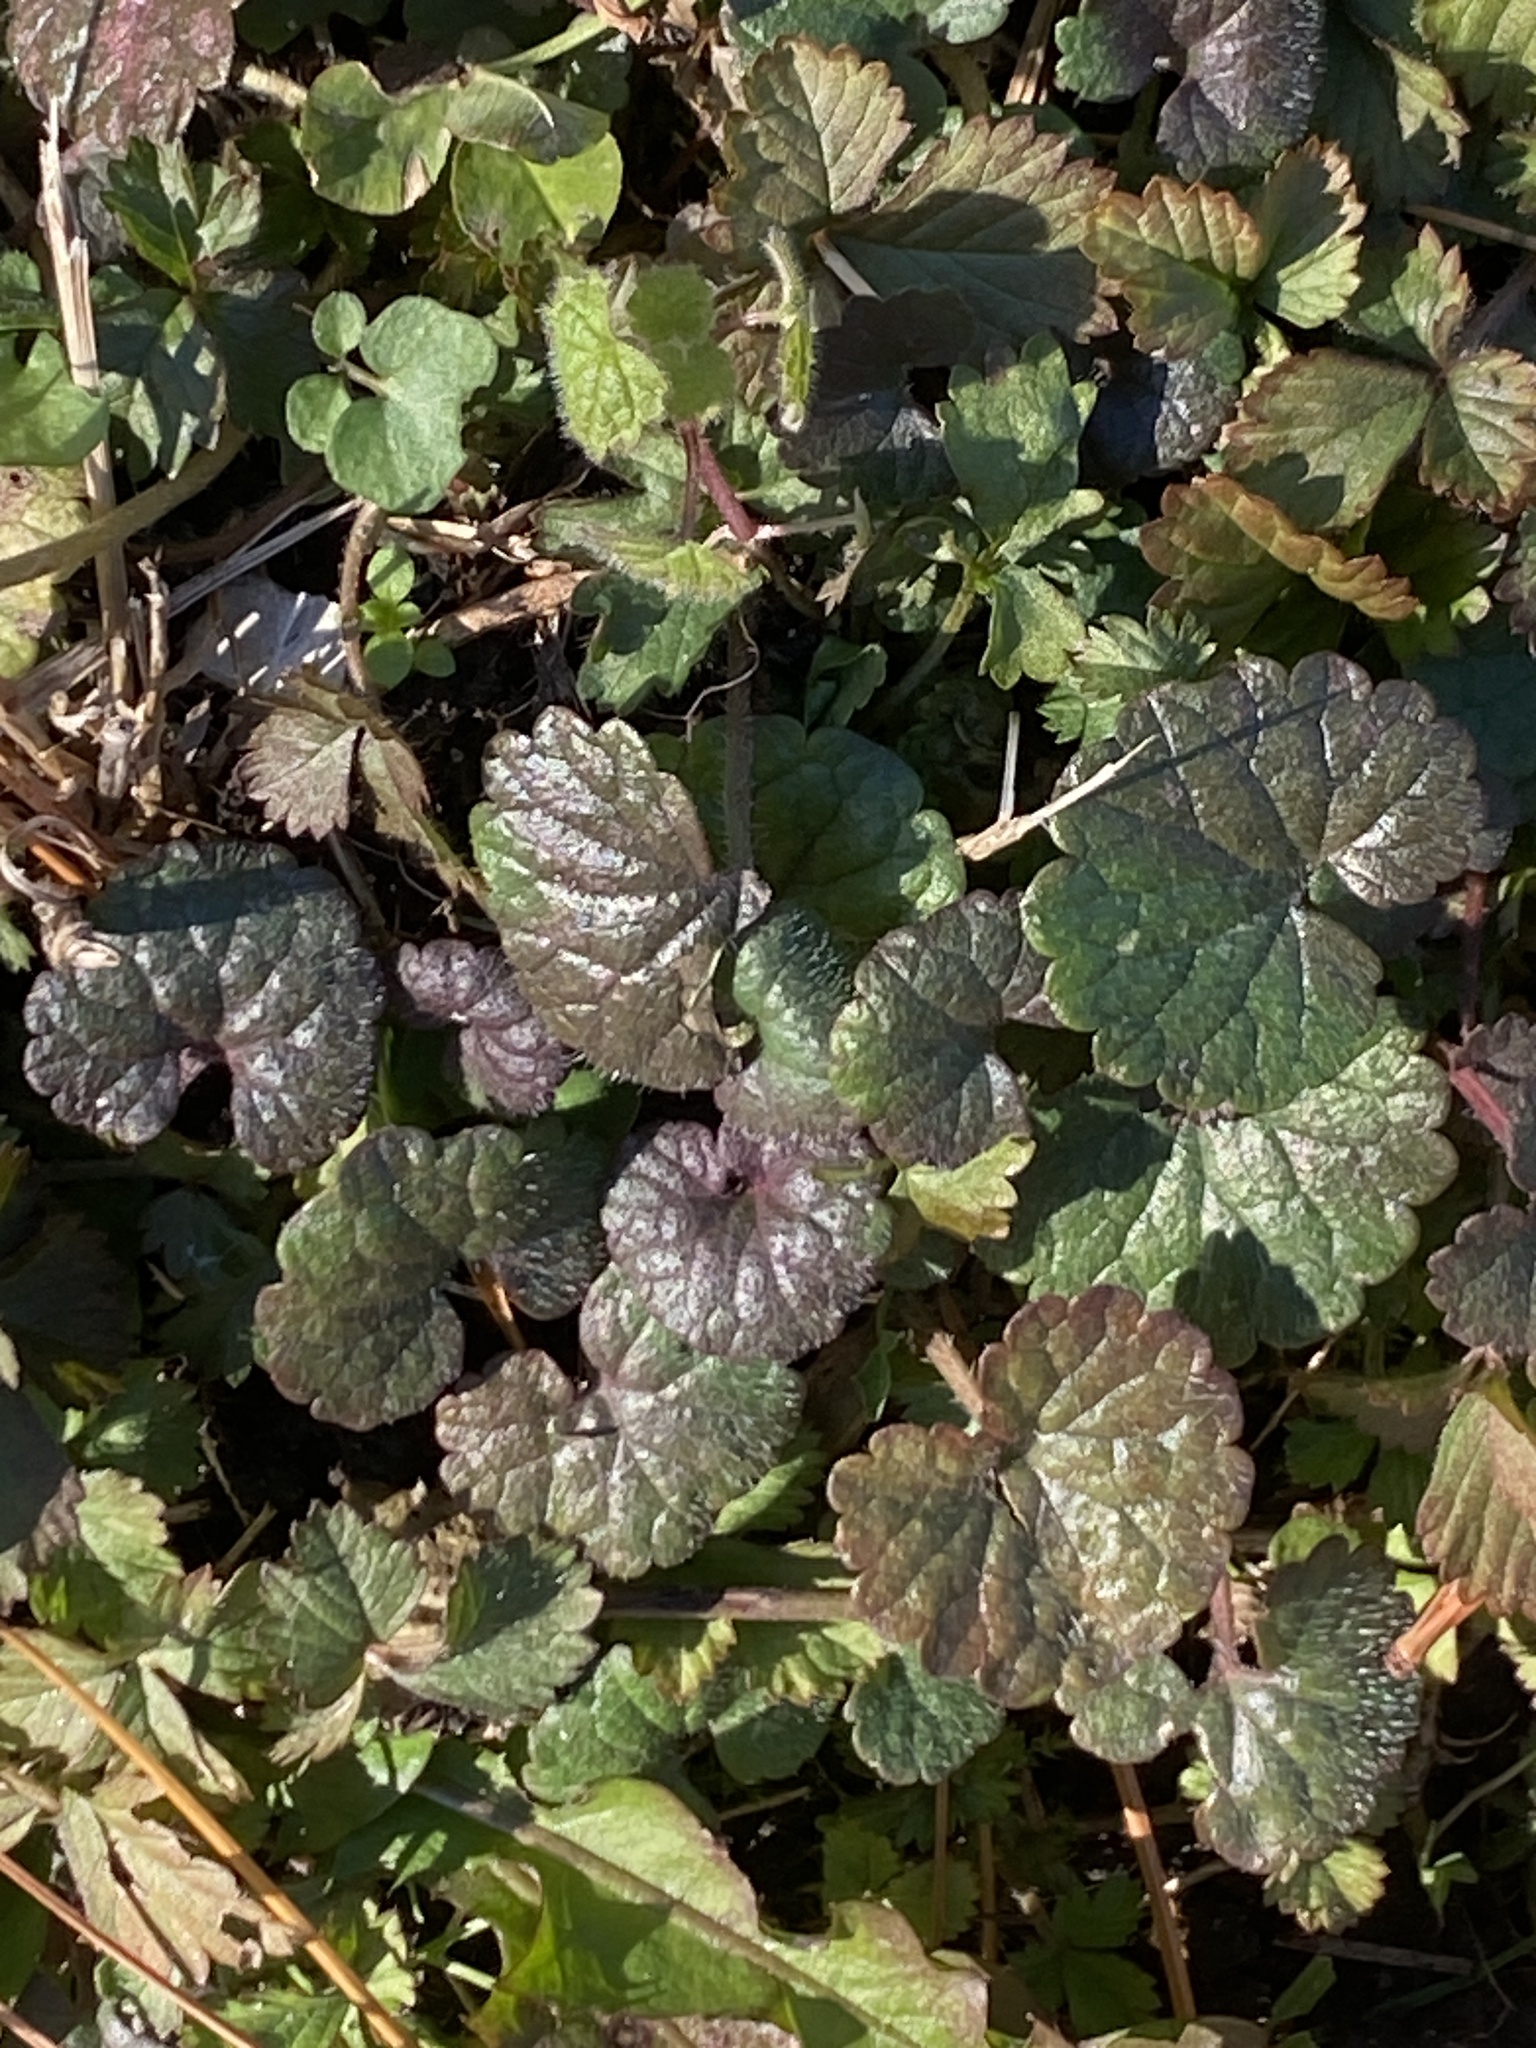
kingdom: Plantae
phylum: Tracheophyta
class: Magnoliopsida
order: Lamiales
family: Lamiaceae
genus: Glechoma
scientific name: Glechoma hederacea
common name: Ground ivy
